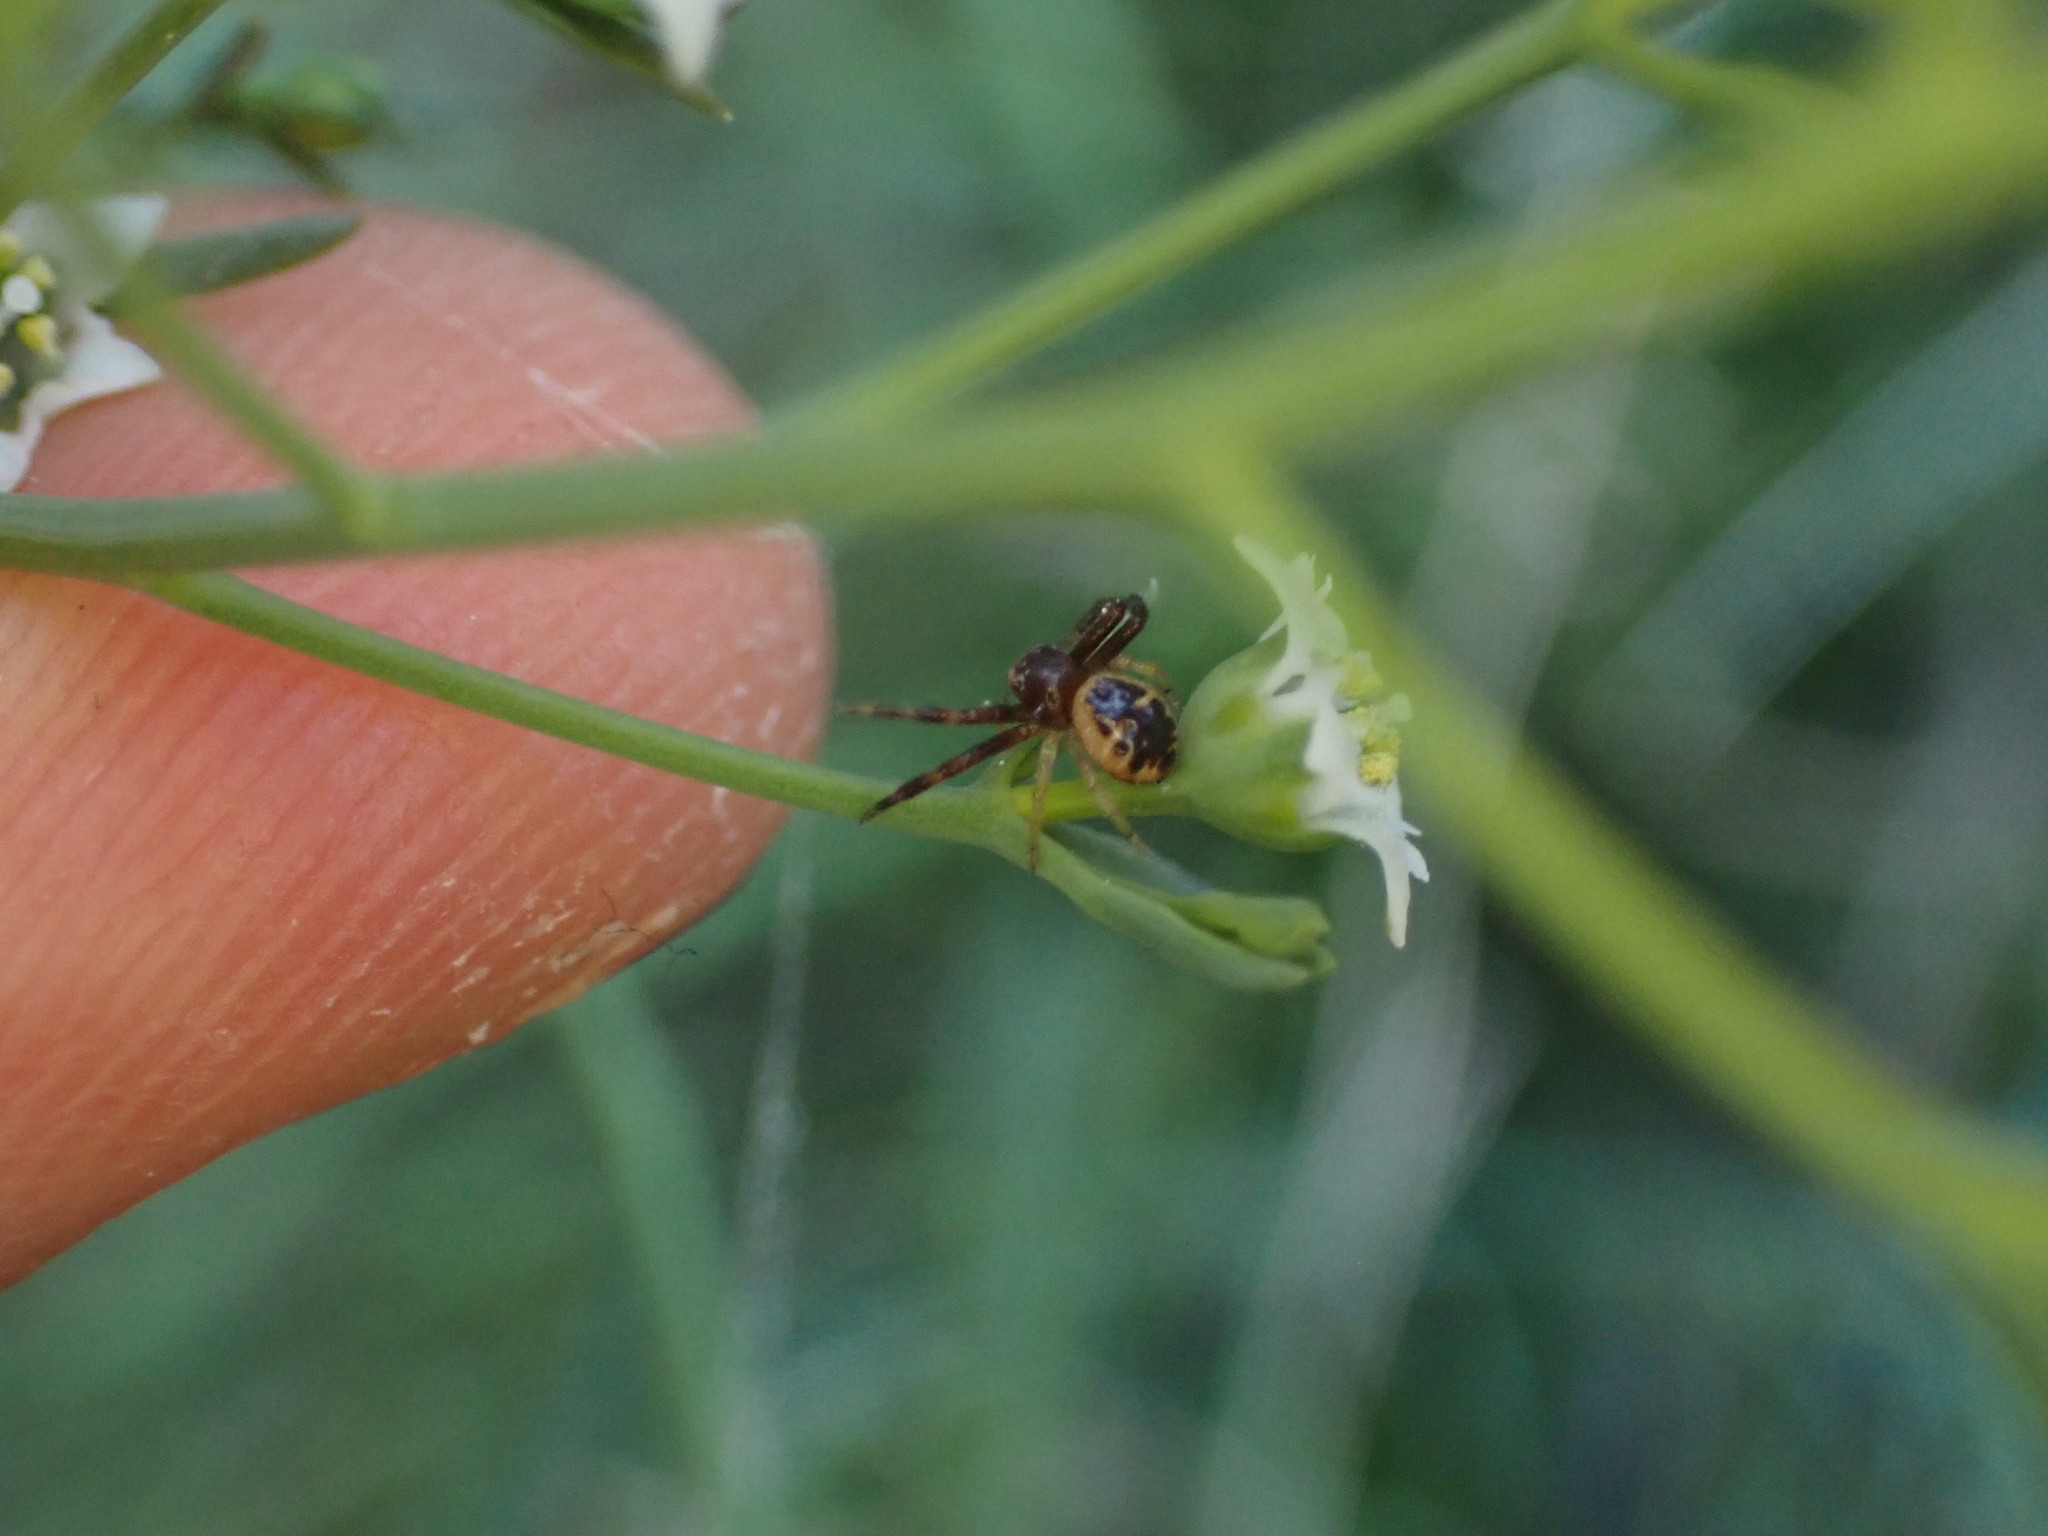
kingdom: Animalia
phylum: Arthropoda
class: Arachnida
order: Araneae
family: Thomisidae
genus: Synema
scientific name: Synema globosum
